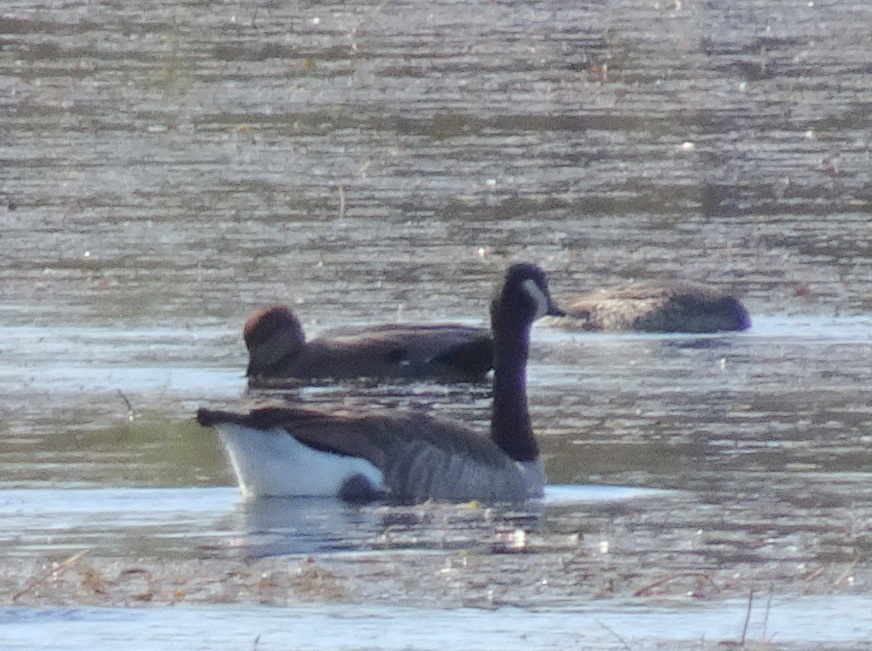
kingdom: Animalia
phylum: Chordata
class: Aves
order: Anseriformes
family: Anatidae
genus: Mareca
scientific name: Mareca strepera
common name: Gadwall
